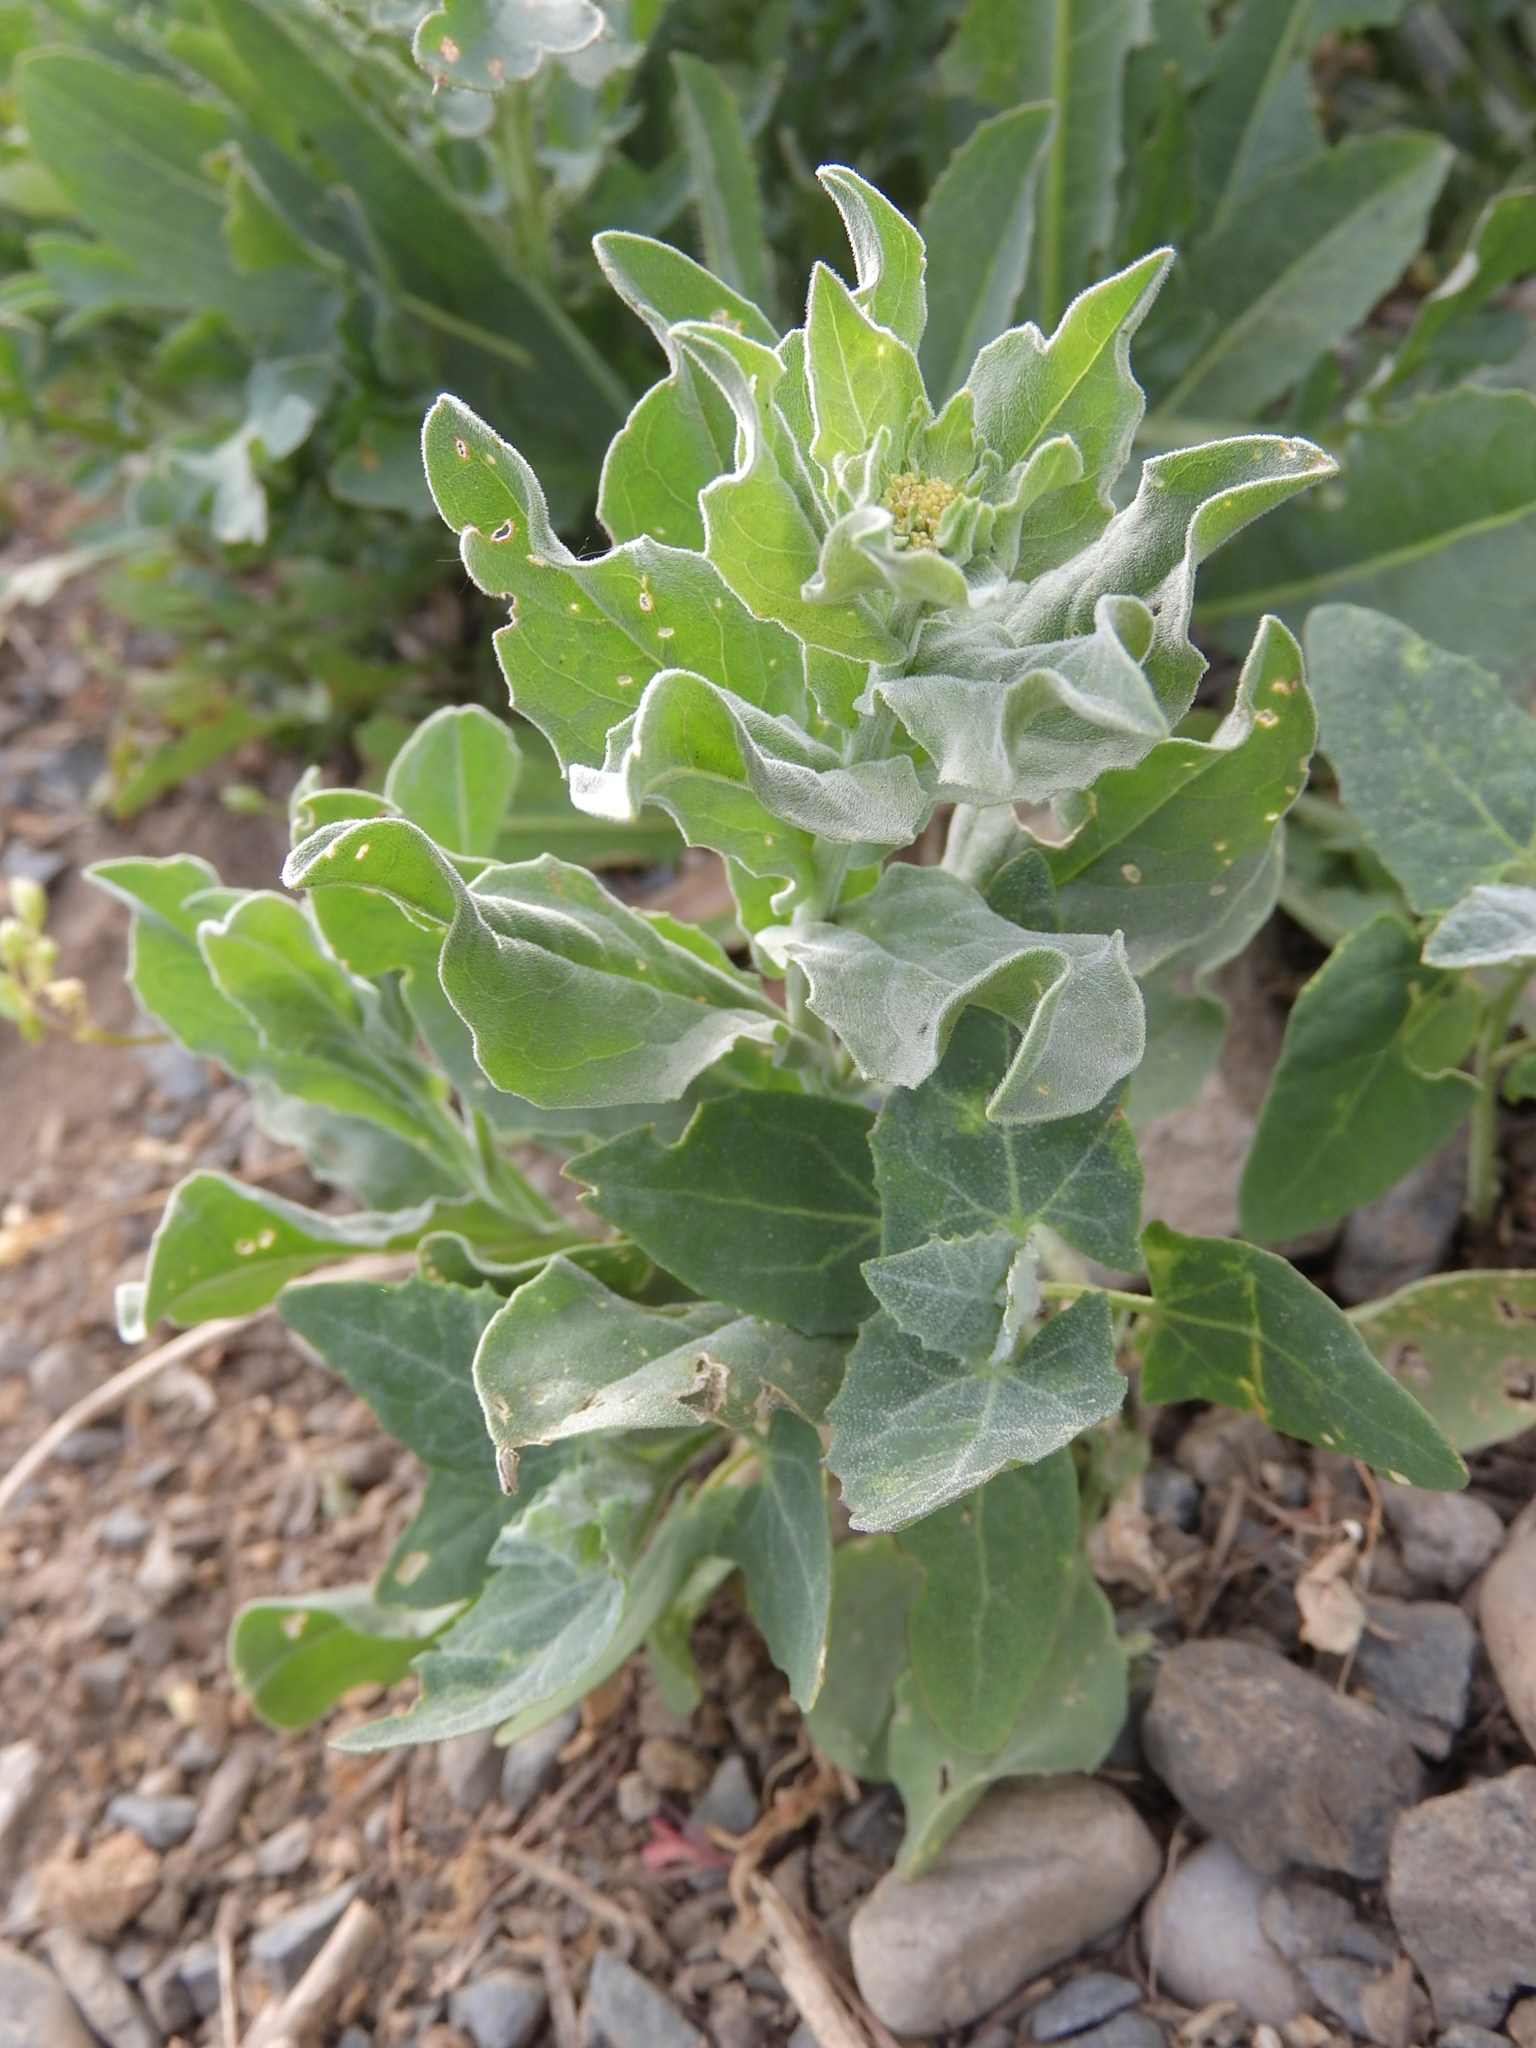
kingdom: Plantae
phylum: Tracheophyta
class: Magnoliopsida
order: Brassicales
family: Brassicaceae
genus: Lepidium
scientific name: Lepidium draba
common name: Hoary cress
